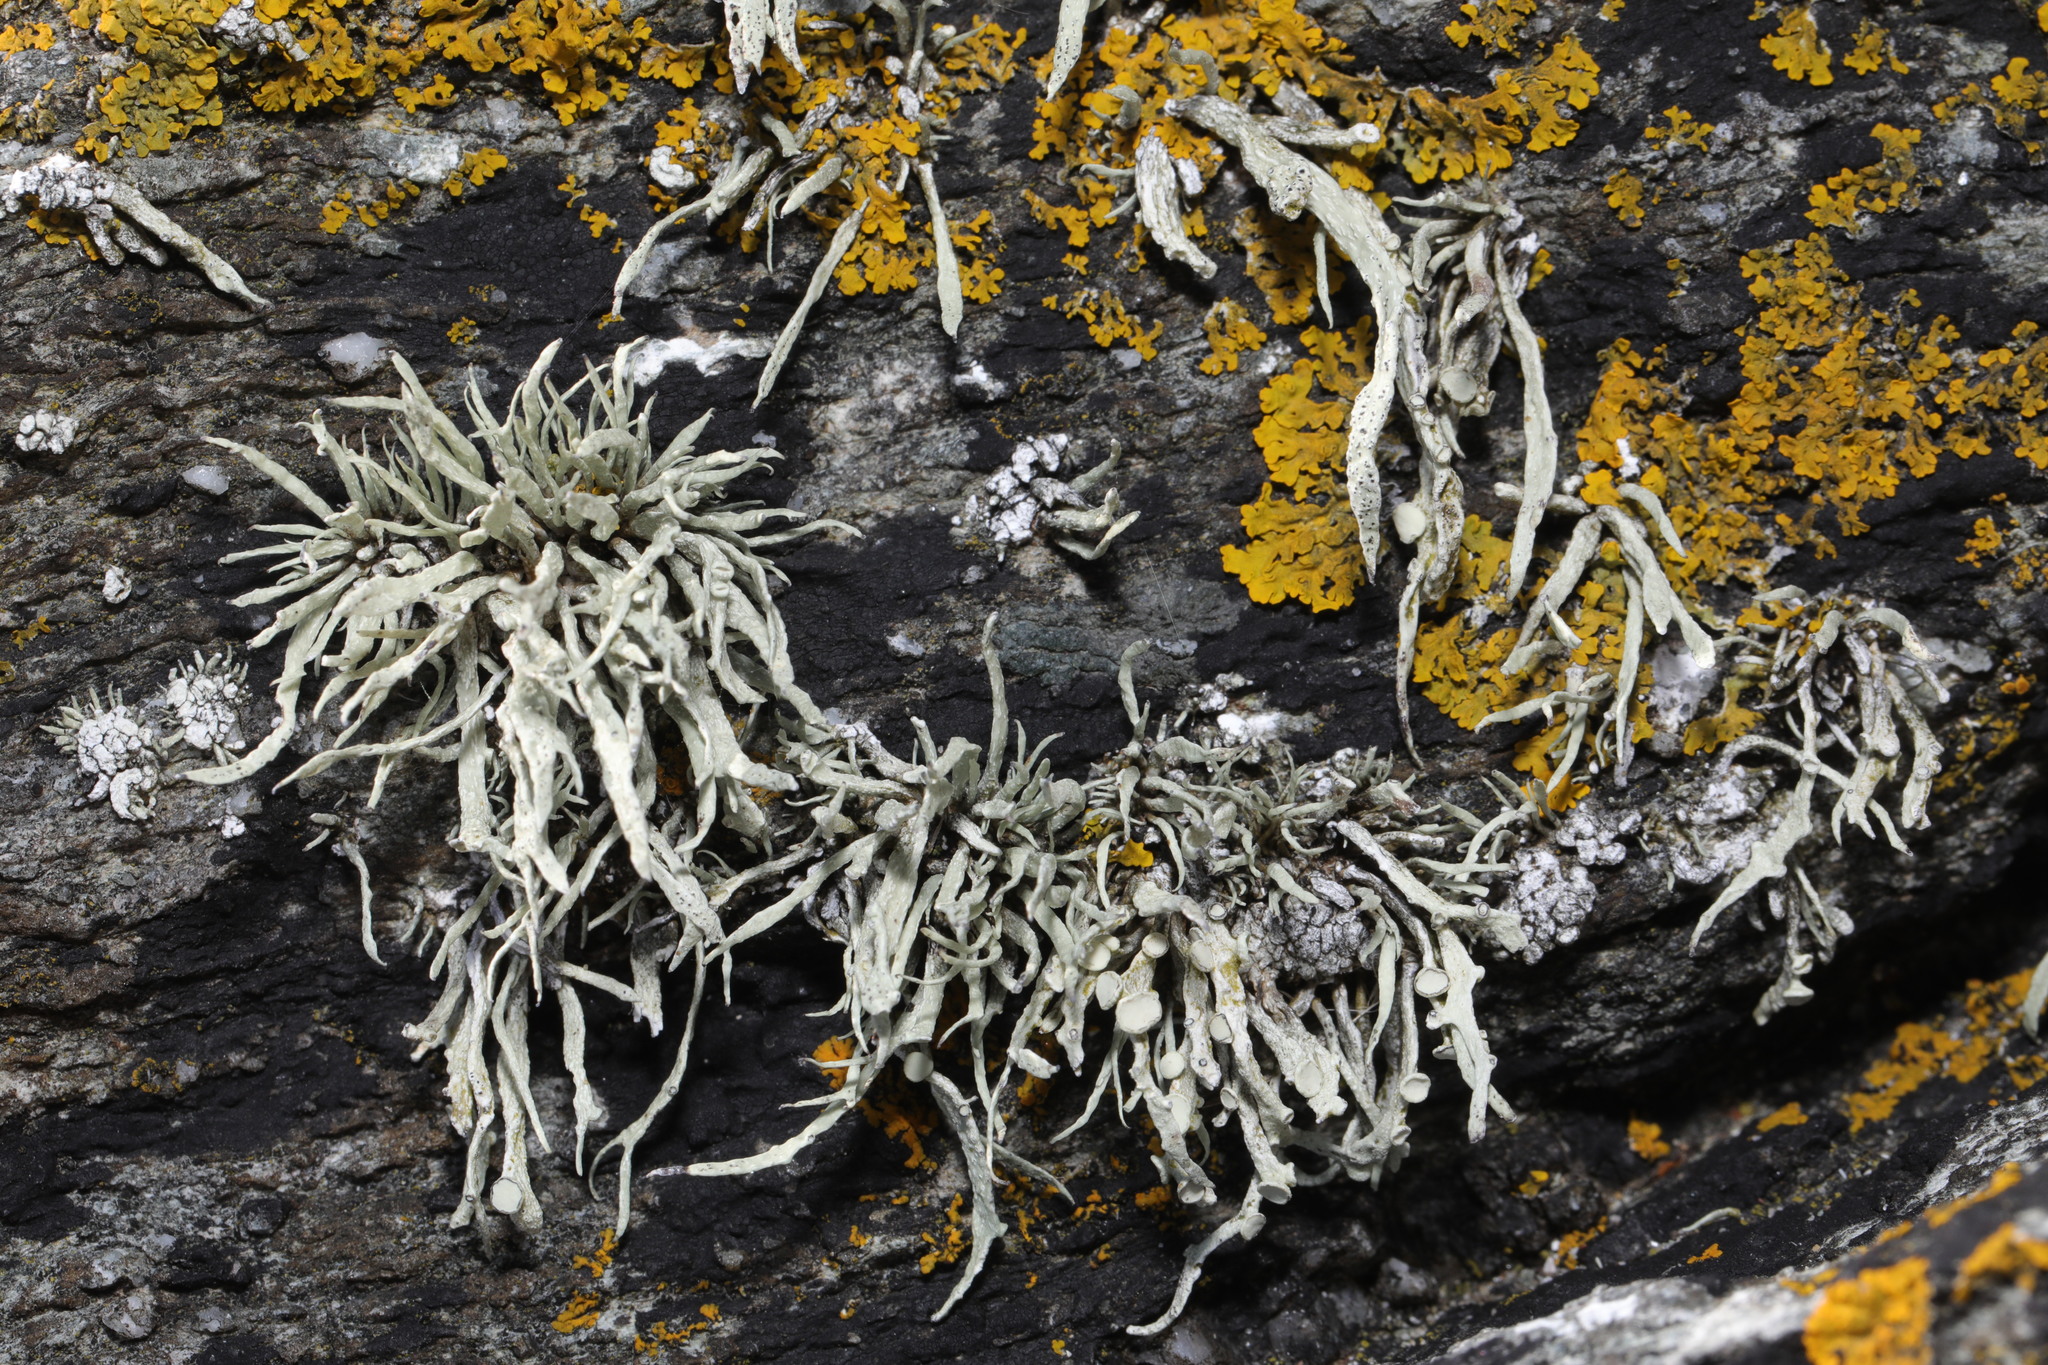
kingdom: Fungi
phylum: Ascomycota
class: Lecanoromycetes
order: Lecanorales
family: Ramalinaceae
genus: Ramalina
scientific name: Ramalina siliquosa
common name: Sea ivory
